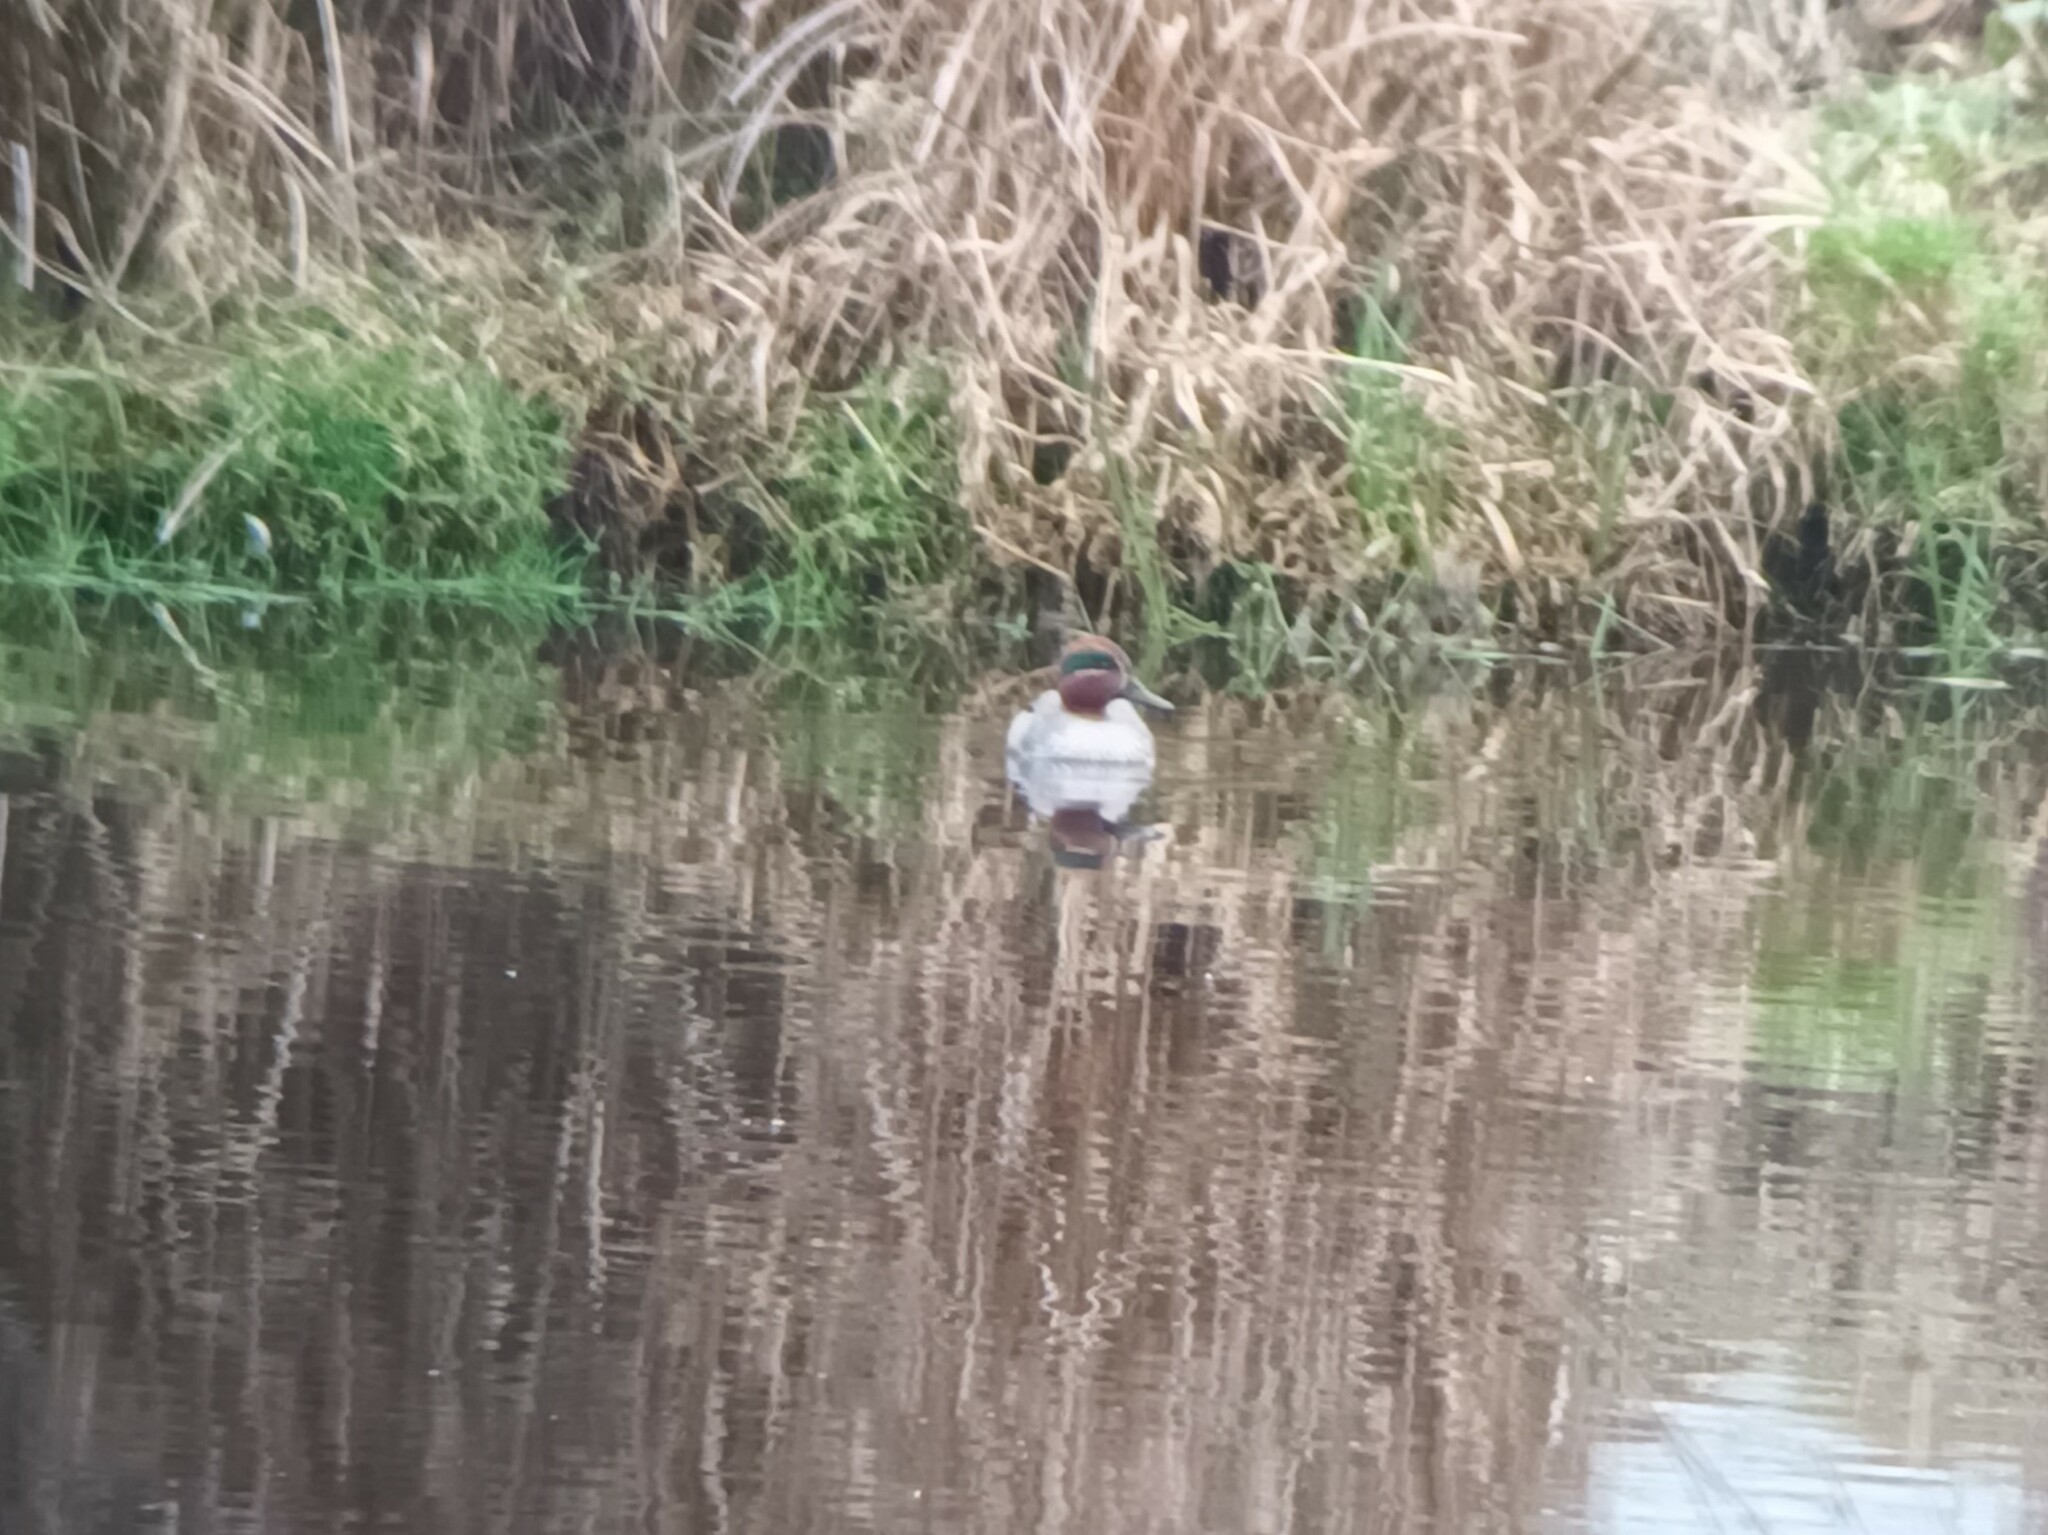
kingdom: Animalia
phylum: Chordata
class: Aves
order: Anseriformes
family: Anatidae
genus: Anas
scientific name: Anas crecca
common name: Eurasian teal
